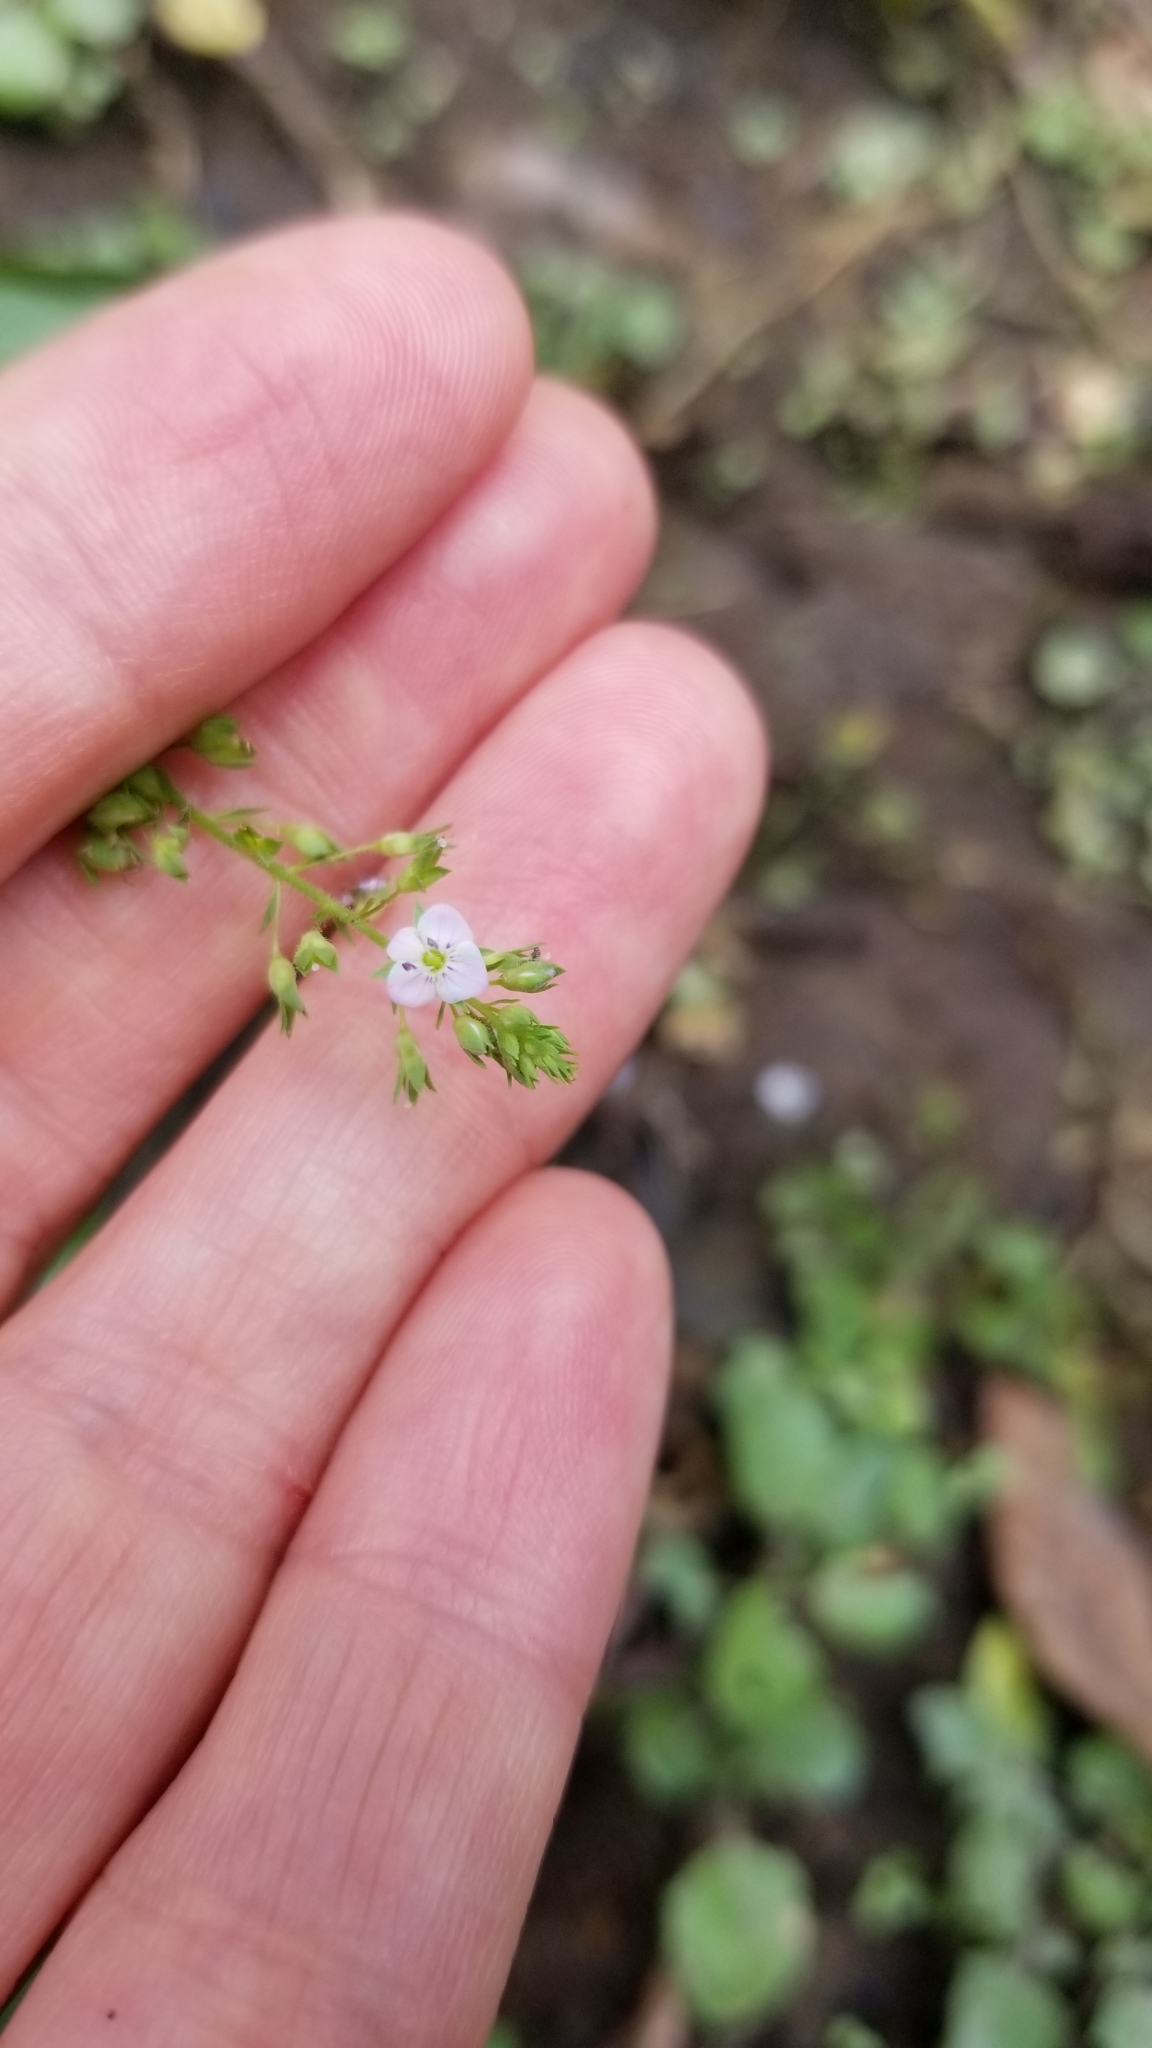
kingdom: Plantae
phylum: Tracheophyta
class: Magnoliopsida
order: Lamiales
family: Plantaginaceae
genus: Veronica
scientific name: Veronica anagallis-aquatica
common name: Water speedwell
